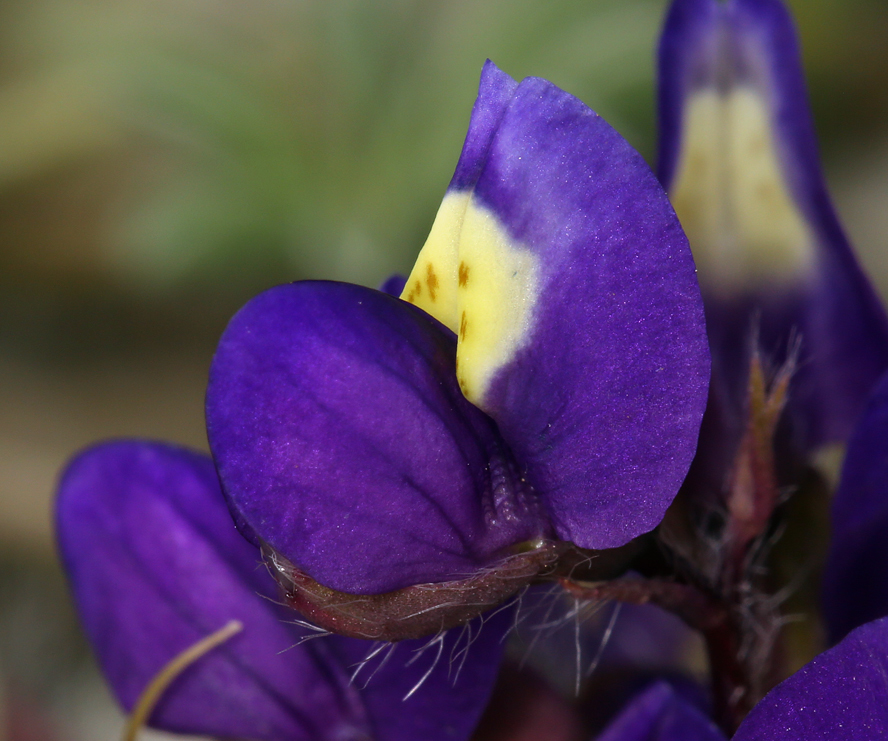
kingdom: Plantae
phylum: Tracheophyta
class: Magnoliopsida
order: Fabales
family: Fabaceae
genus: Lupinus
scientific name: Lupinus flavoculatus
